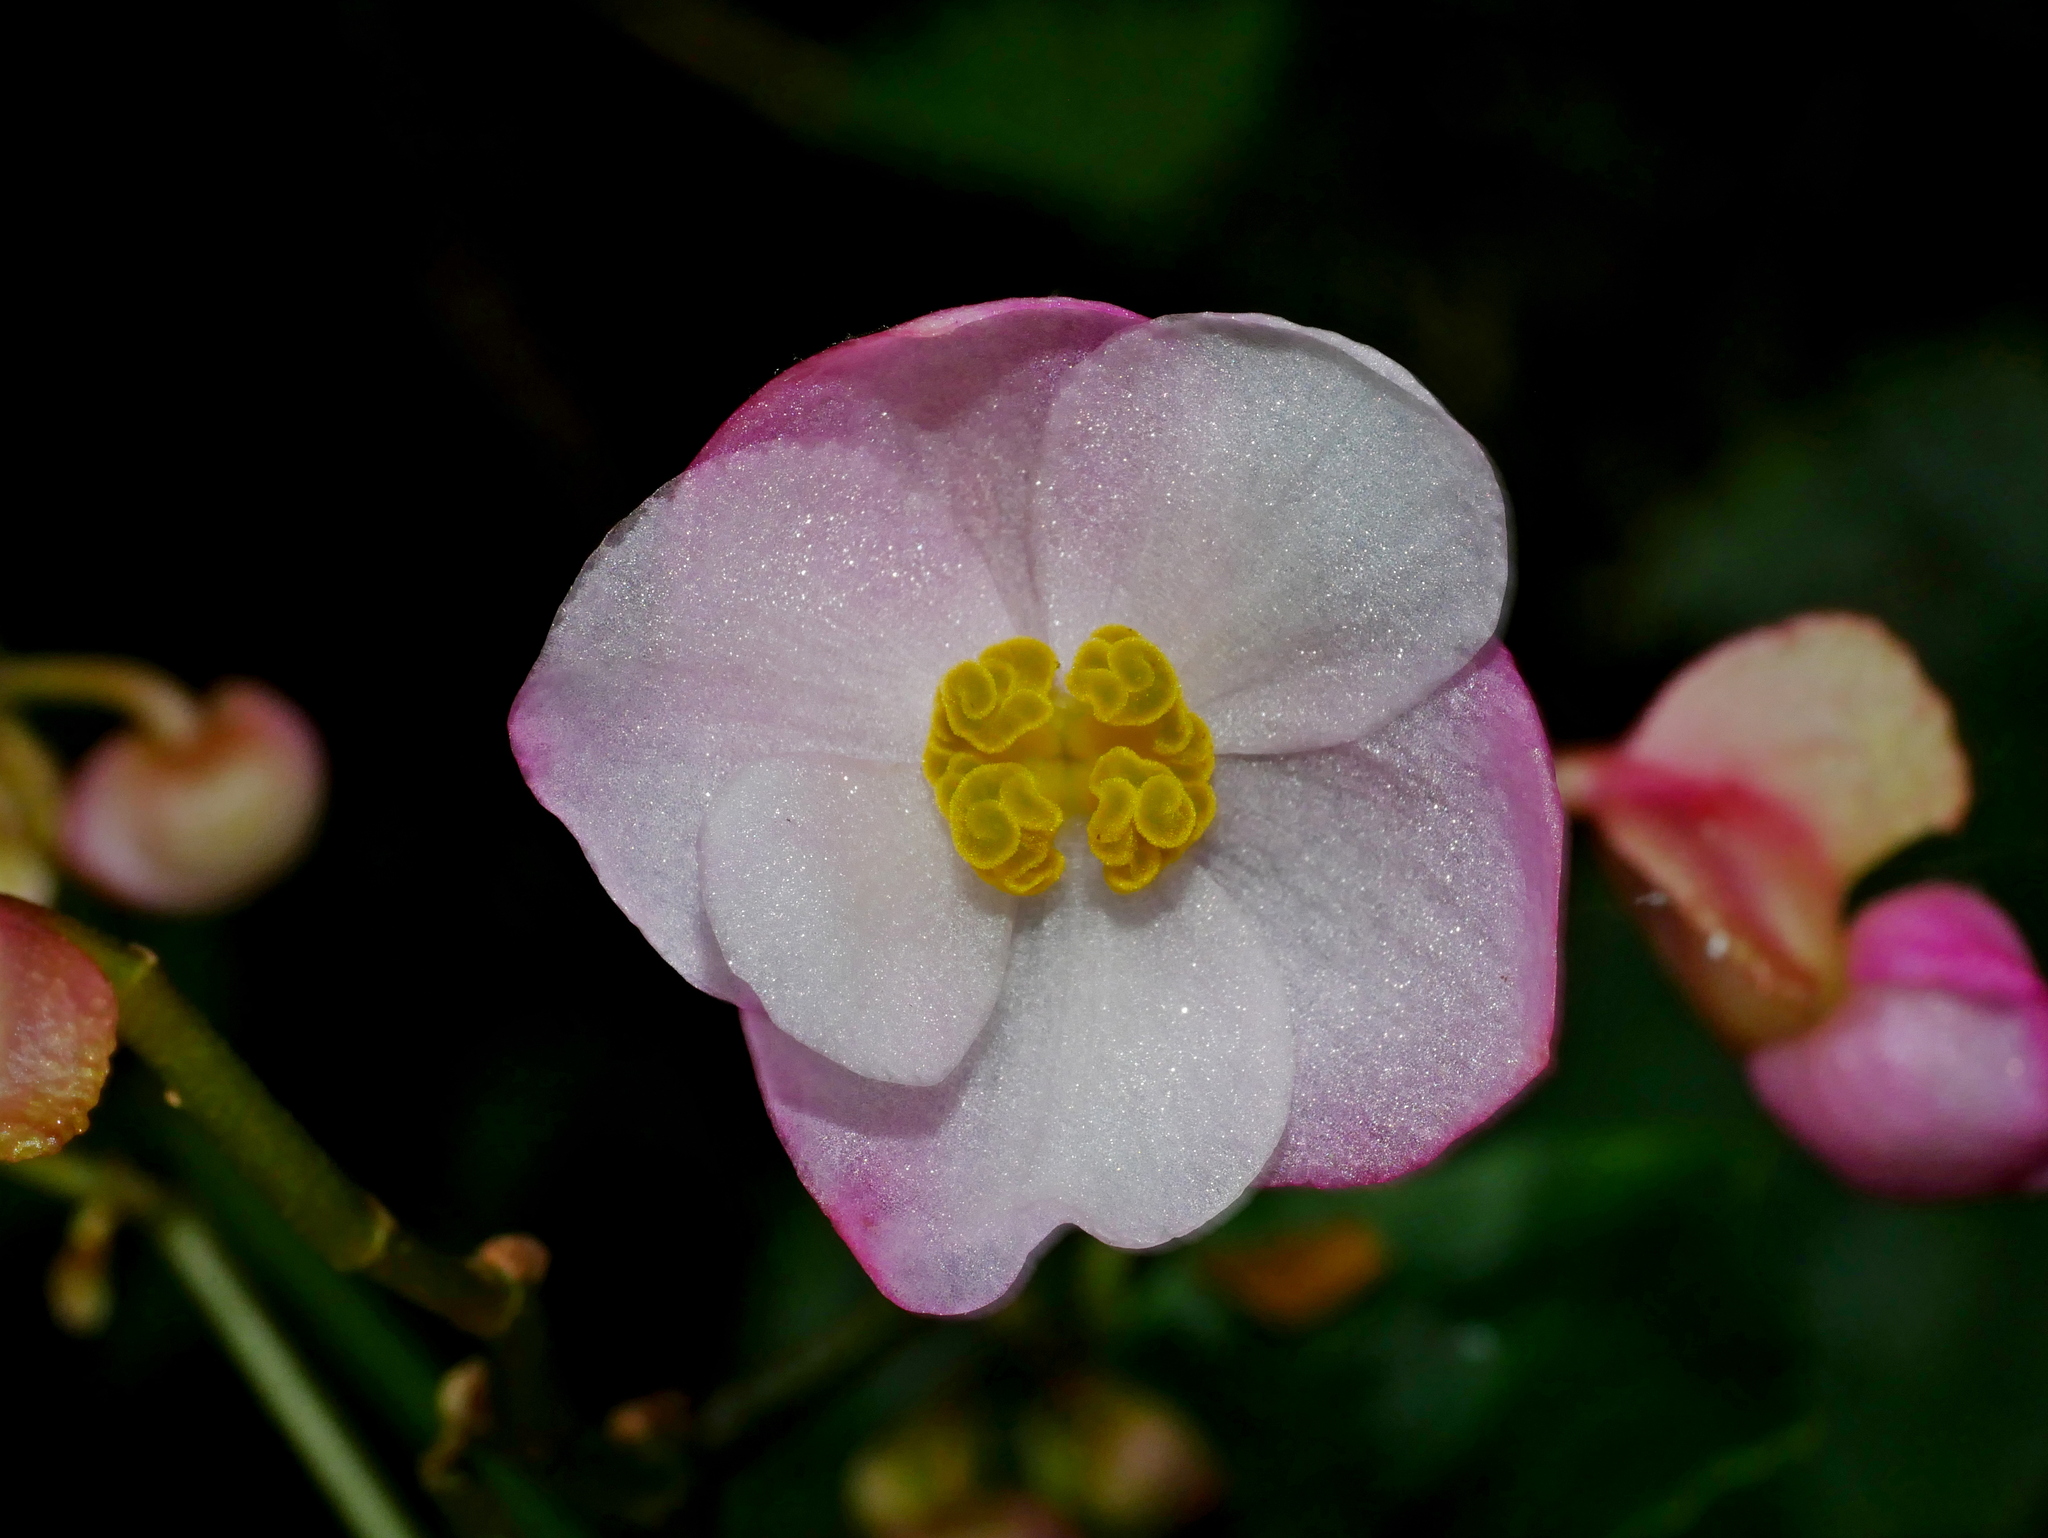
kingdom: Plantae
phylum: Tracheophyta
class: Magnoliopsida
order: Cucurbitales
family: Begoniaceae
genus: Begonia
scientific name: Begonia formosana
